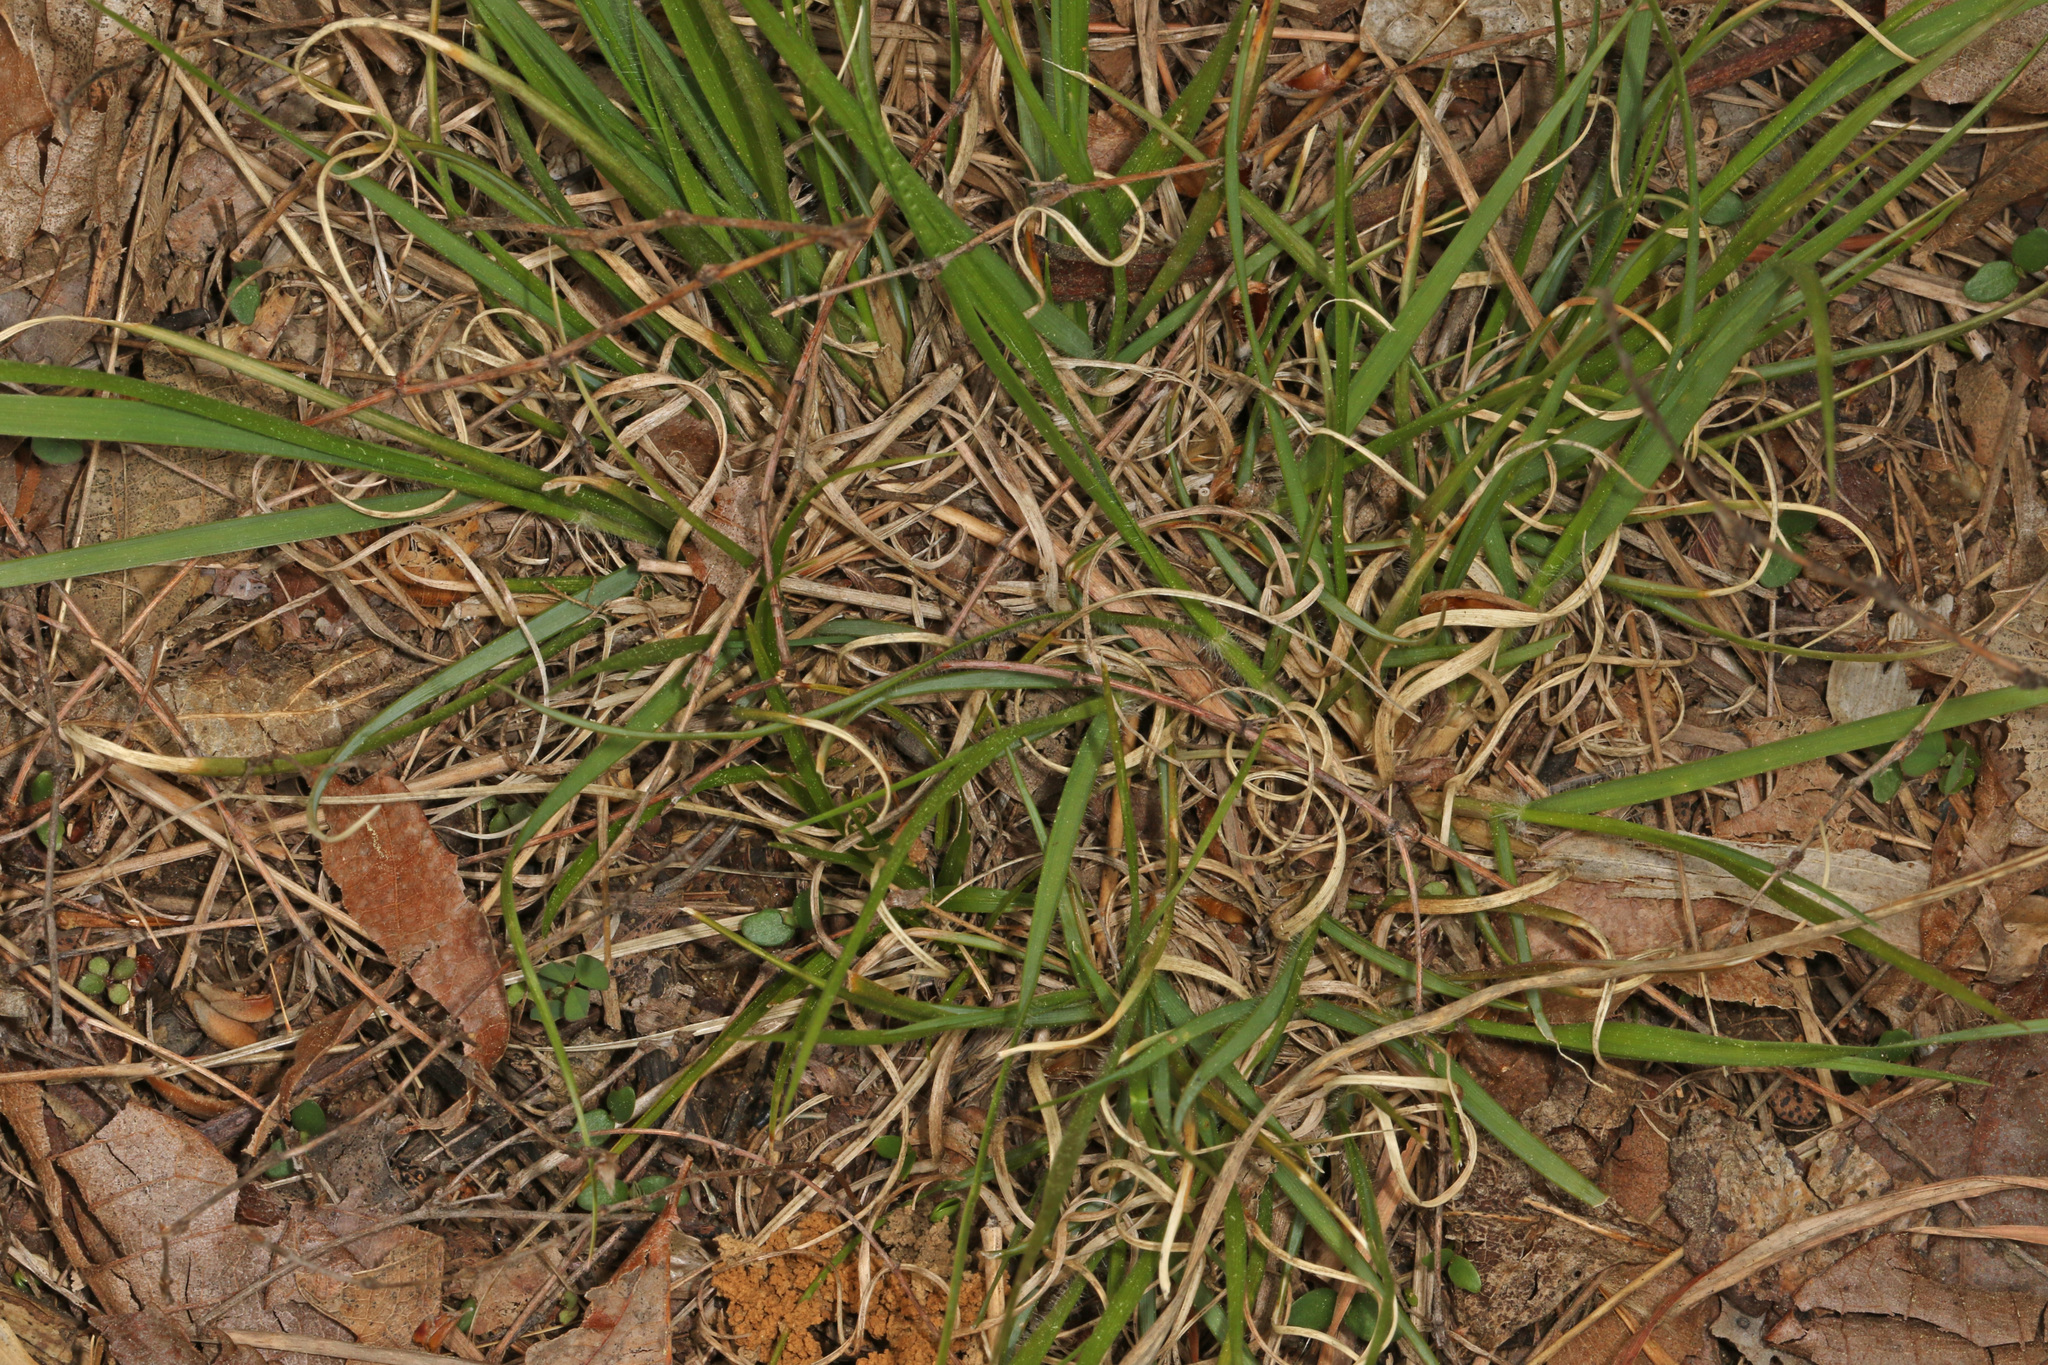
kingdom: Plantae
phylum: Tracheophyta
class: Liliopsida
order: Poales
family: Poaceae
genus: Danthonia
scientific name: Danthonia spicata
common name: Common wild oatgrass
